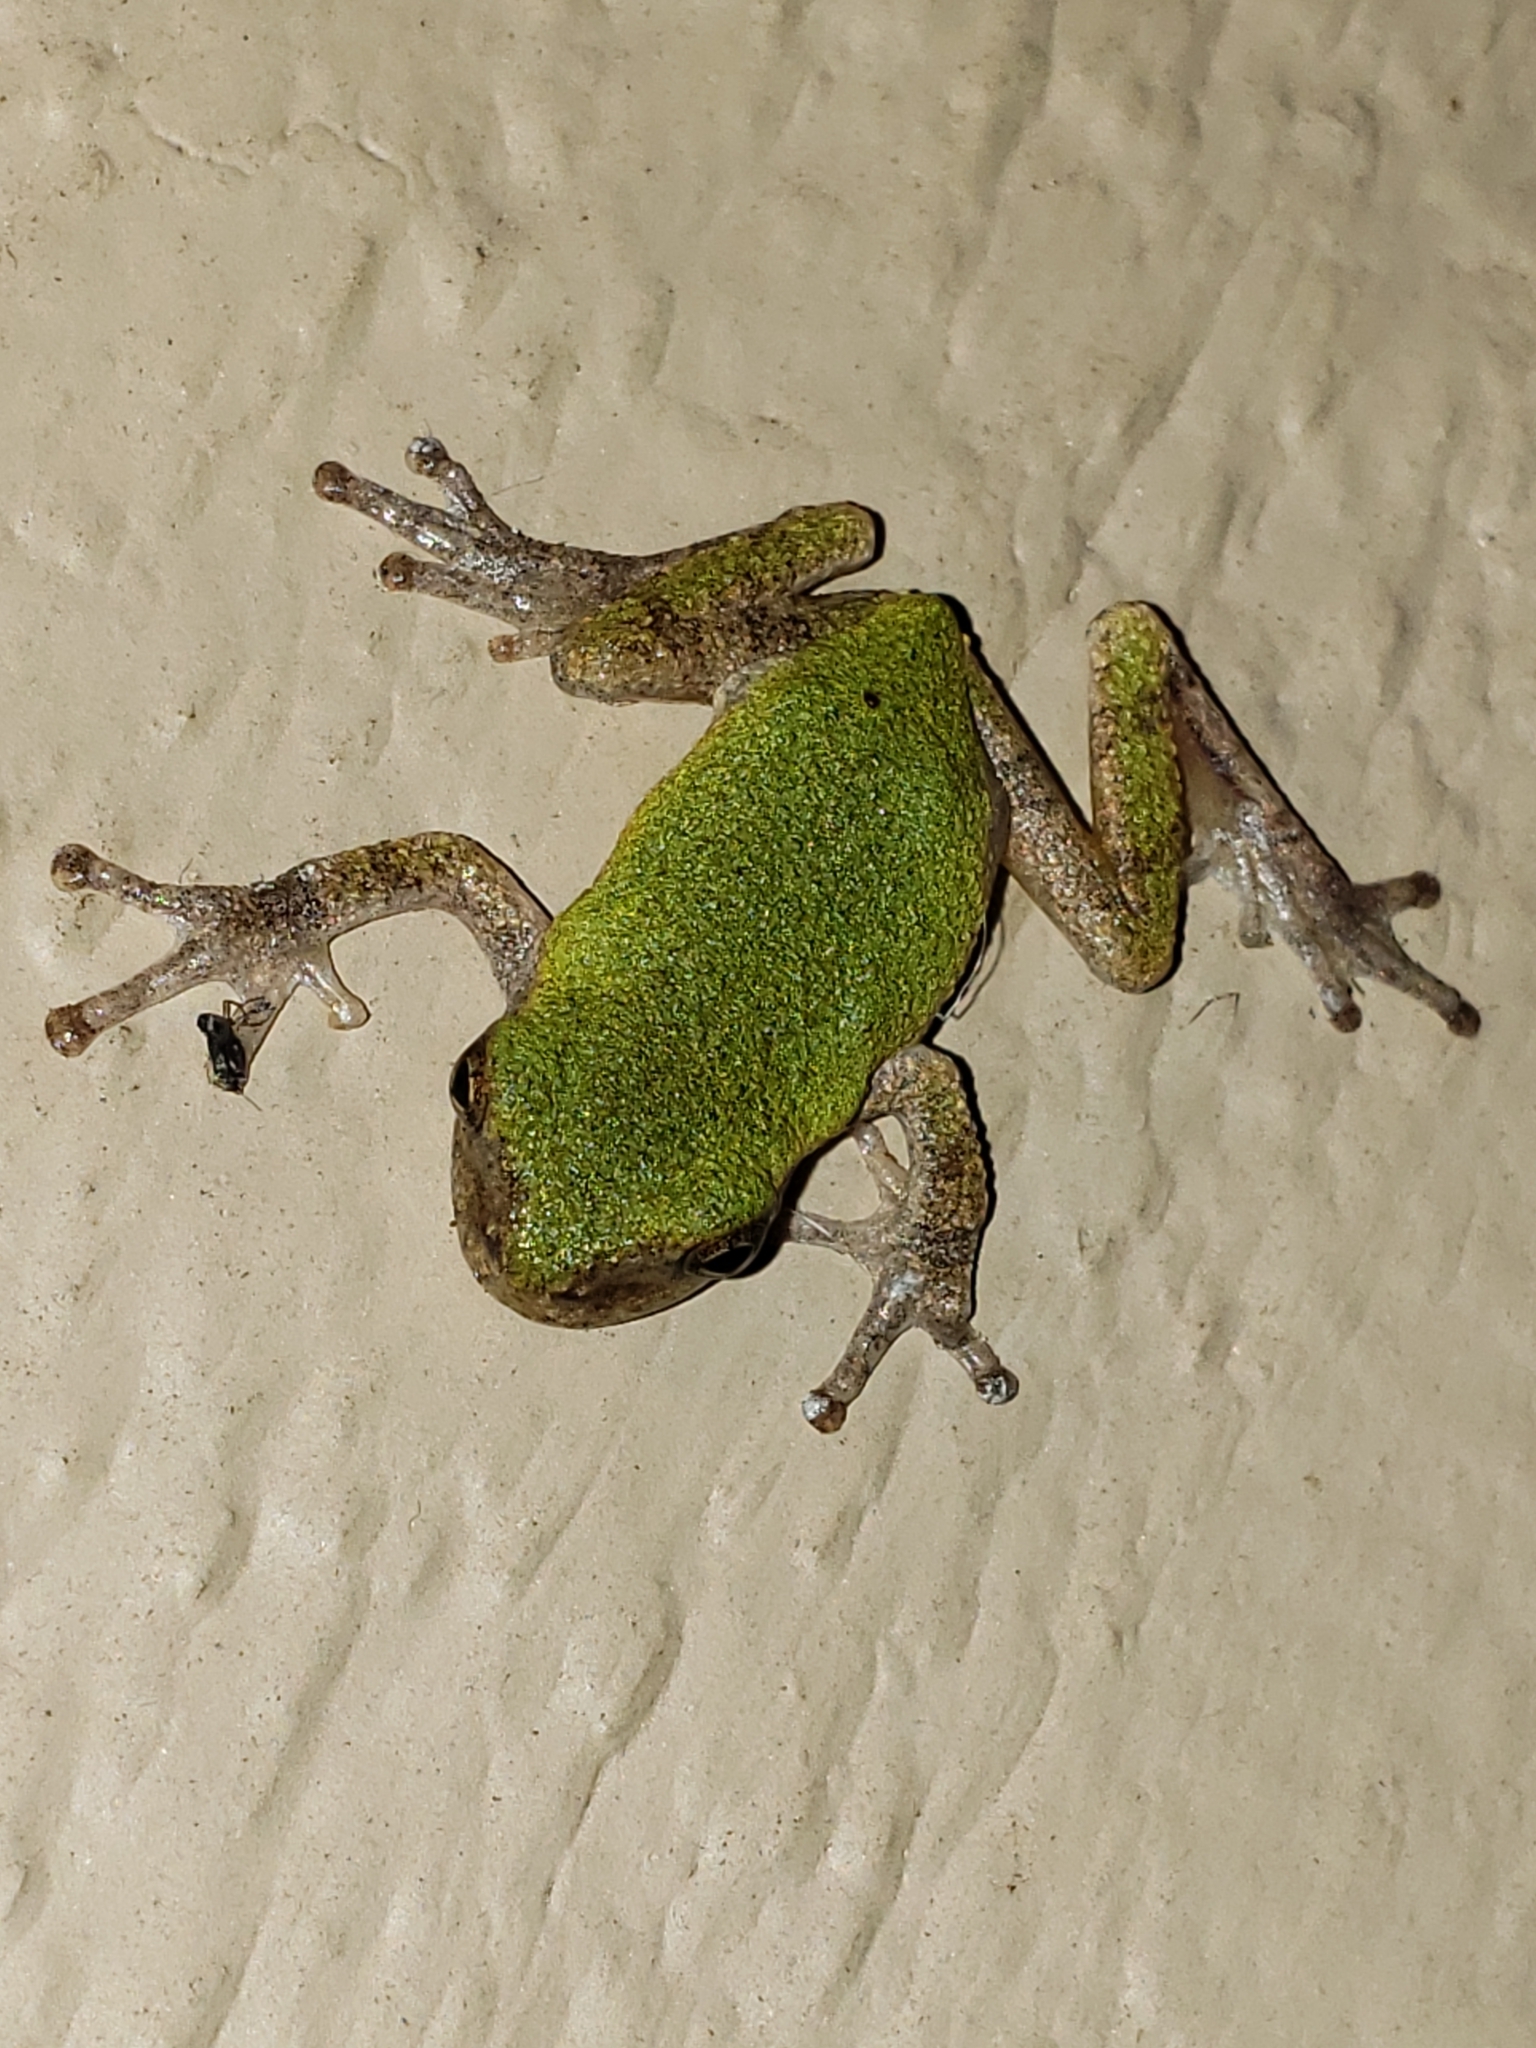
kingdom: Animalia
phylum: Chordata
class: Amphibia
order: Anura
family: Hylidae
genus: Hyla
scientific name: Hyla
